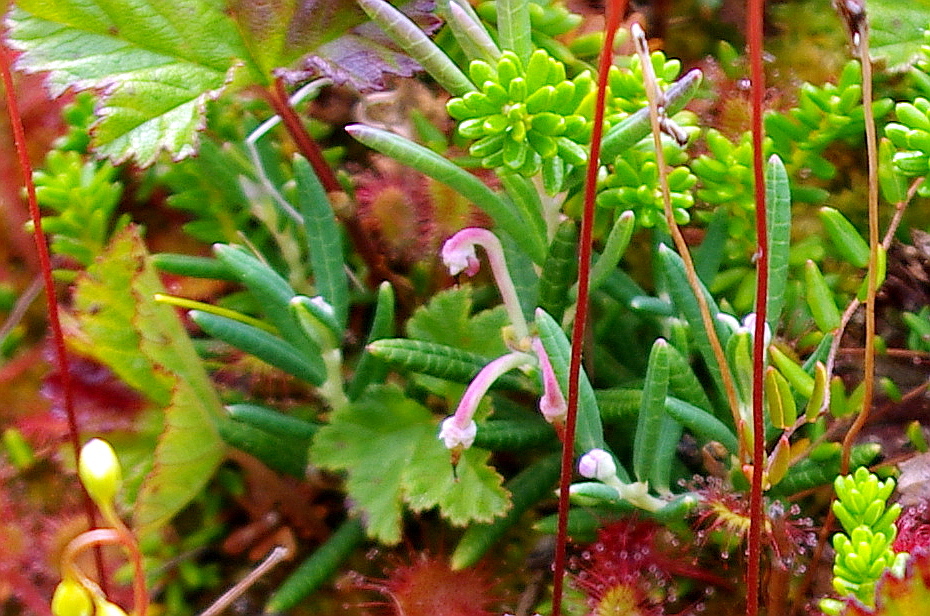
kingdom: Plantae
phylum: Tracheophyta
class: Magnoliopsida
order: Ericales
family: Ericaceae
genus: Andromeda
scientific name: Andromeda polifolia
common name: Bog-rosemary
